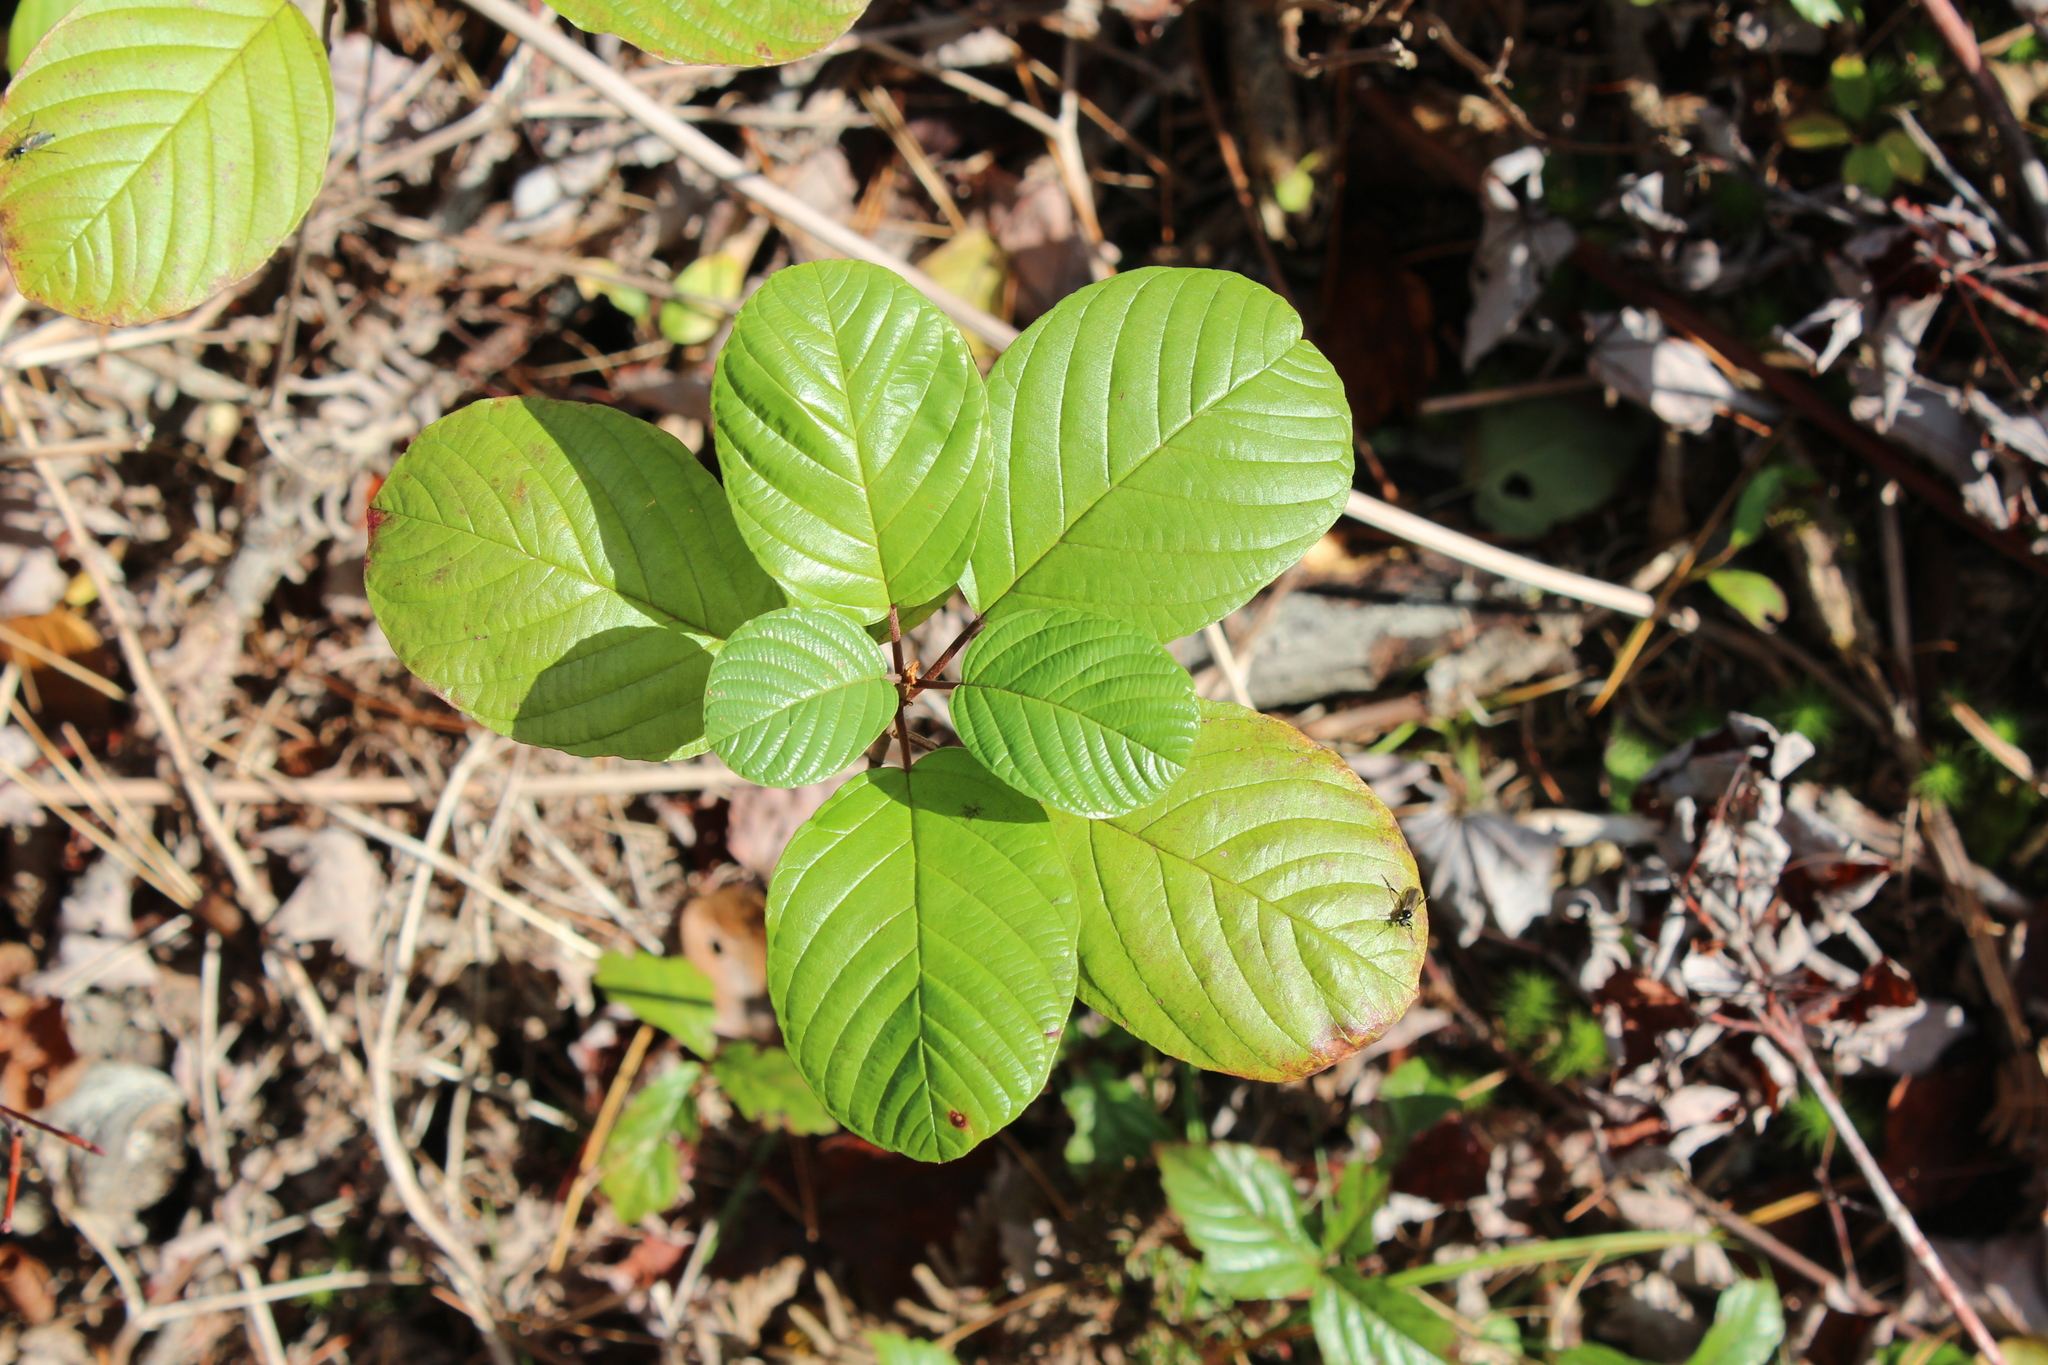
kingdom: Plantae
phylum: Tracheophyta
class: Magnoliopsida
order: Rosales
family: Rhamnaceae
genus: Frangula
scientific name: Frangula alnus
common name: Alder buckthorn
